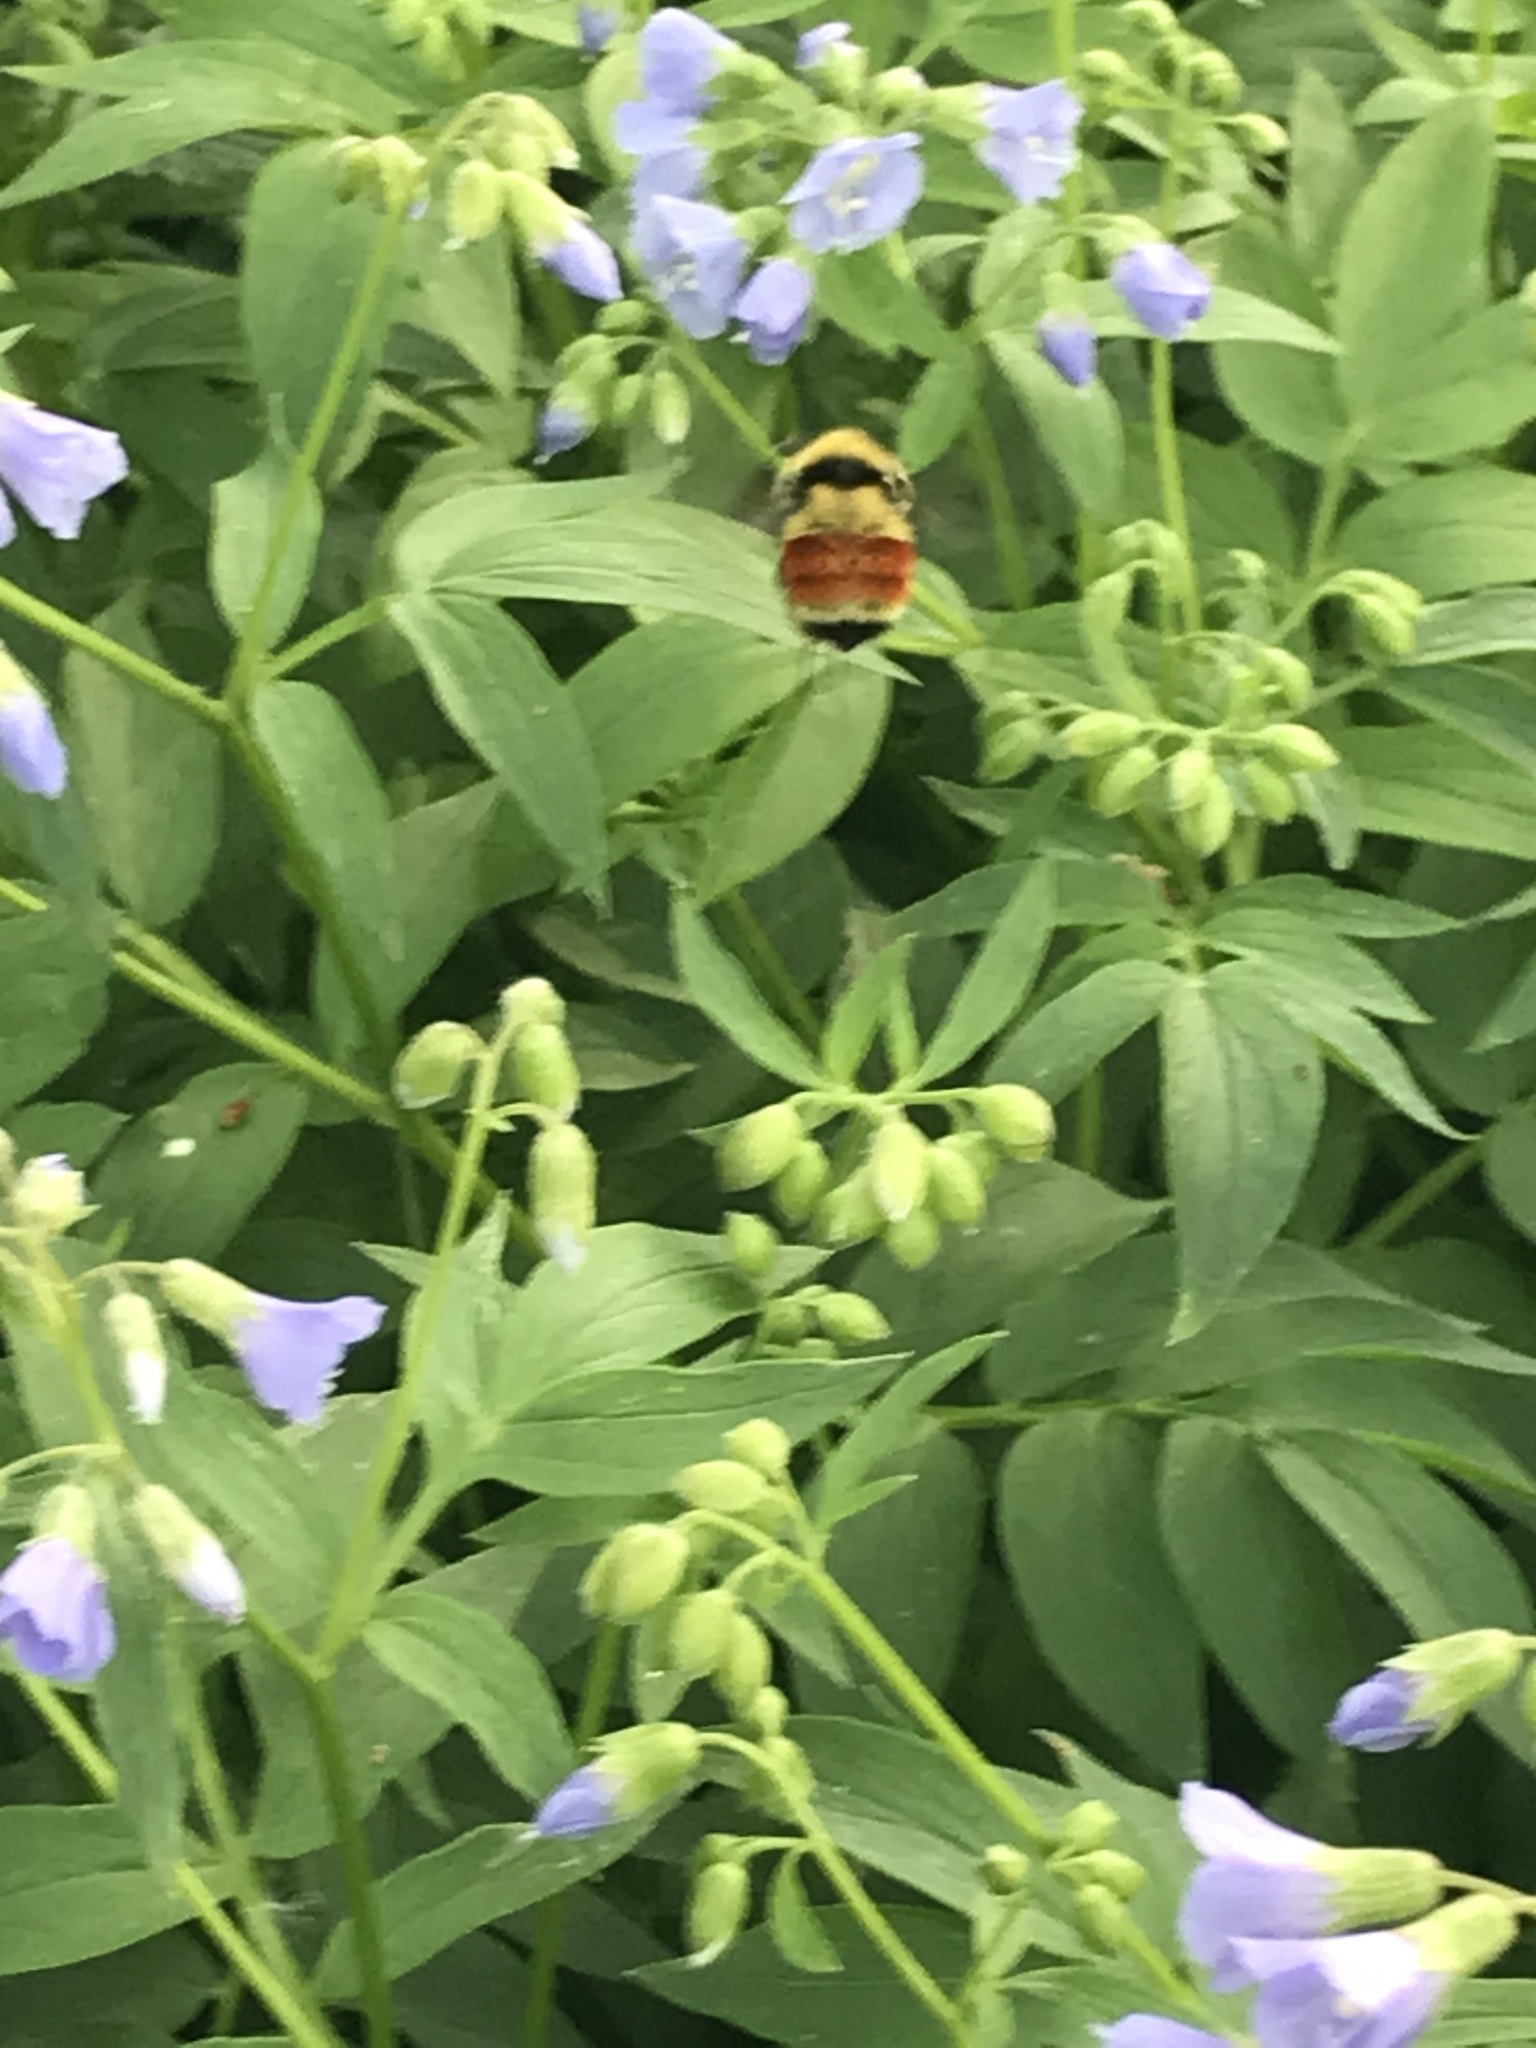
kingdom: Animalia
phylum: Arthropoda
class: Insecta
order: Hymenoptera
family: Apidae
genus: Bombus
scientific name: Bombus huntii
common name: Hunt bumble bee
